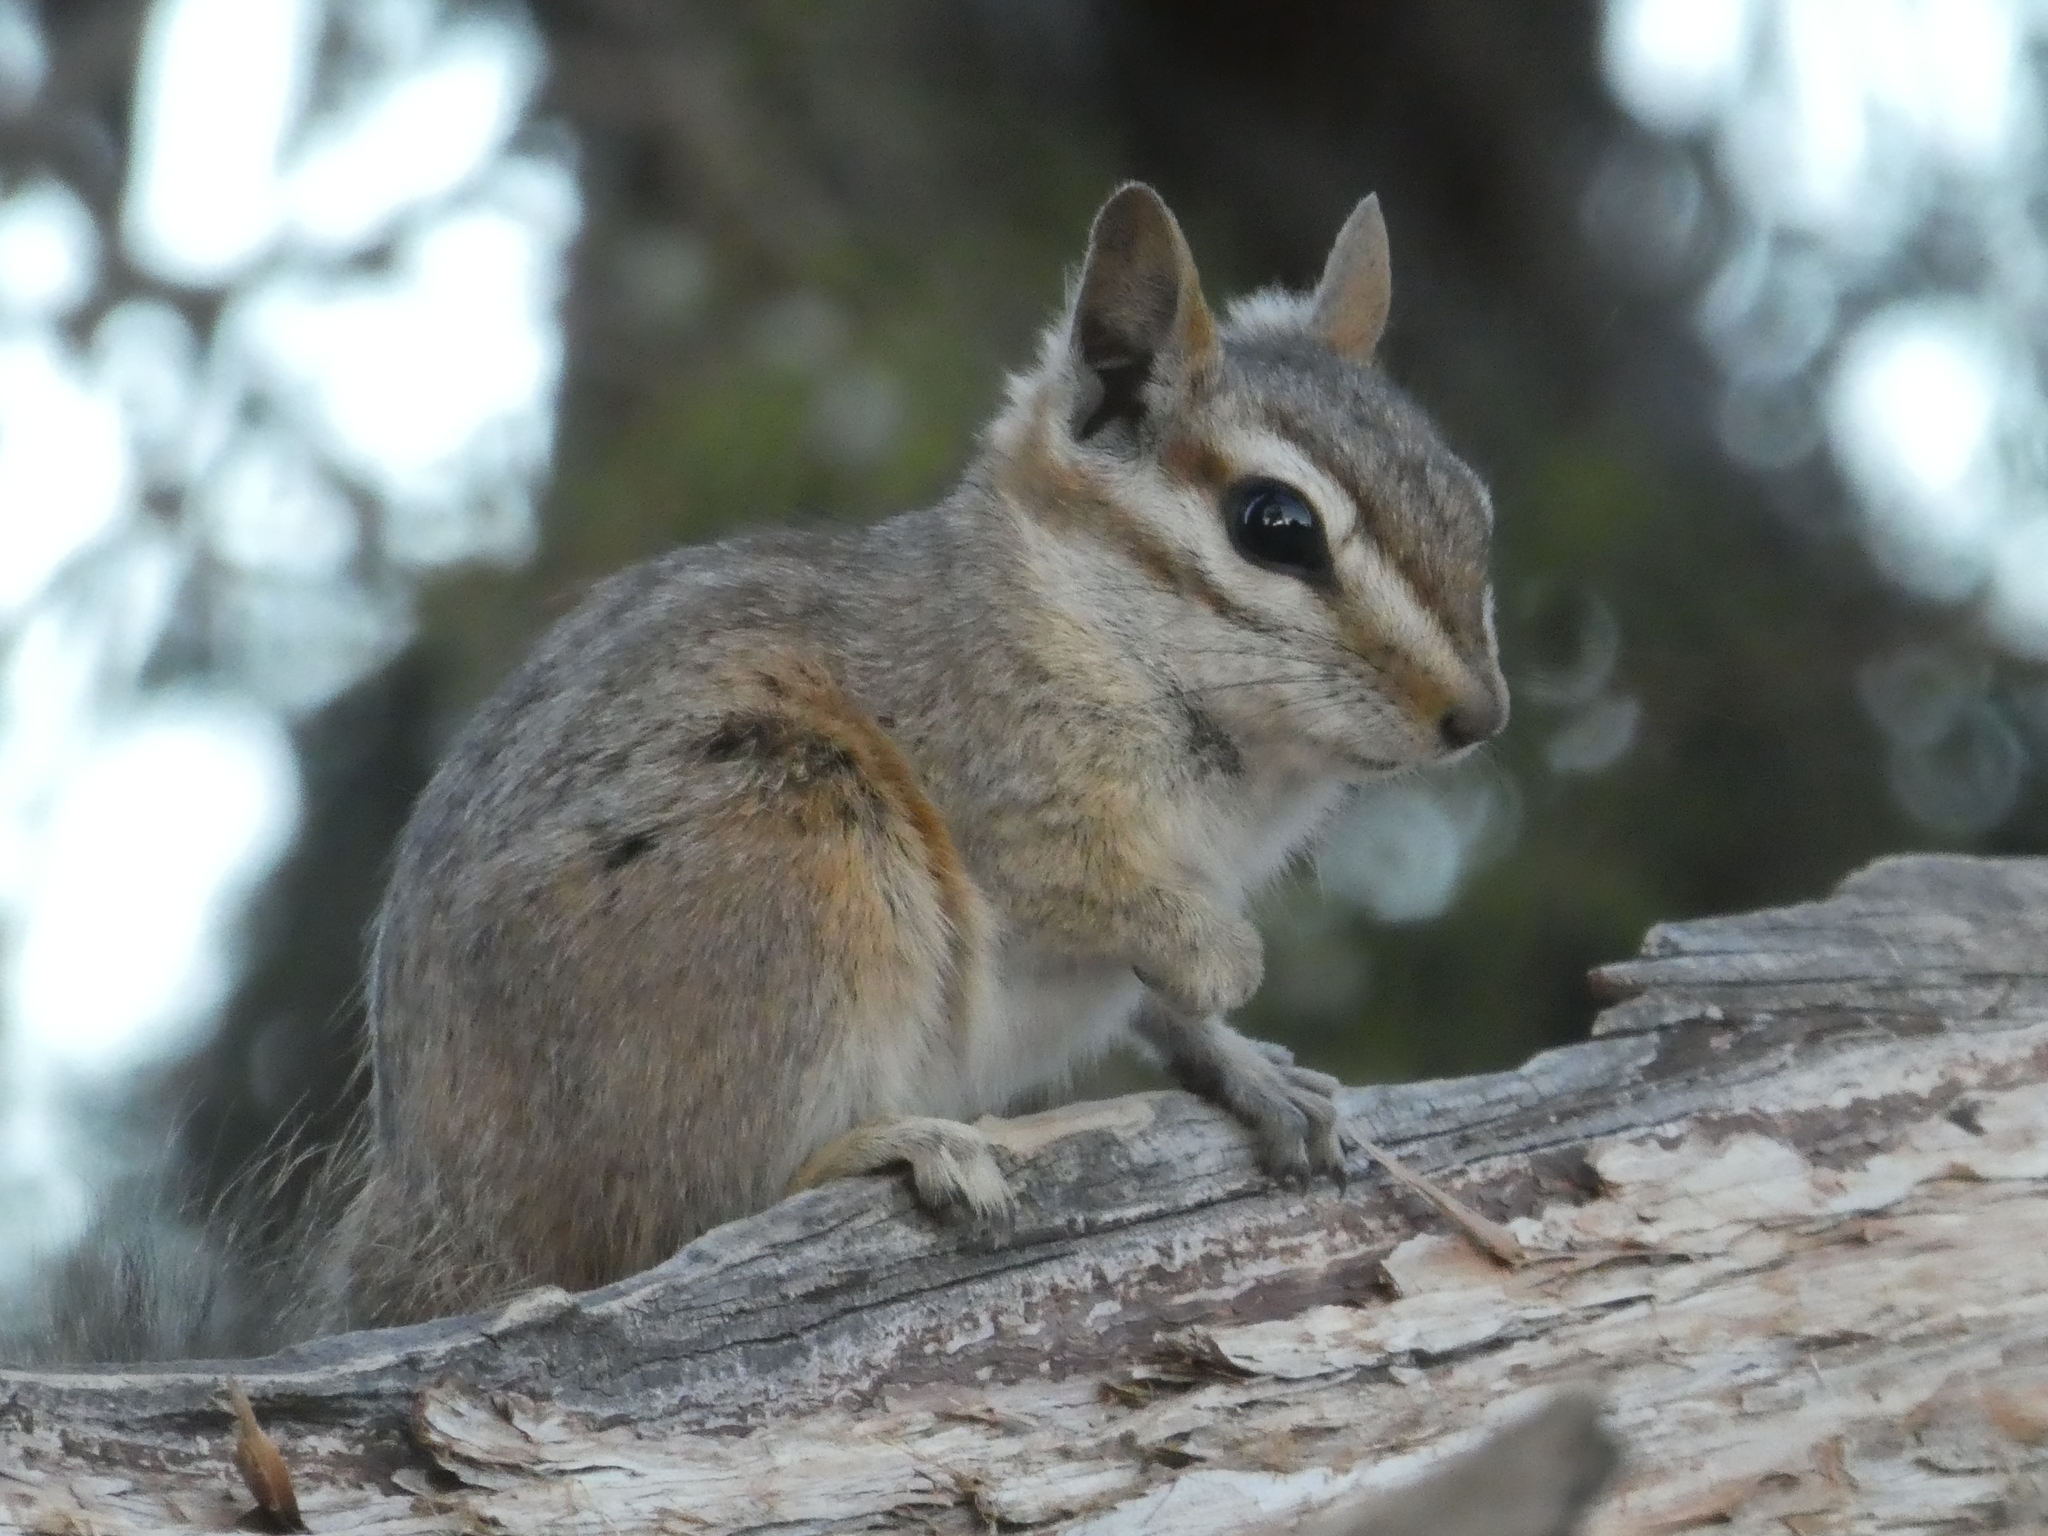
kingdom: Animalia
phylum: Chordata
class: Mammalia
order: Rodentia
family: Sciuridae
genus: Tamias
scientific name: Tamias dorsalis
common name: Cliff chipmunk
